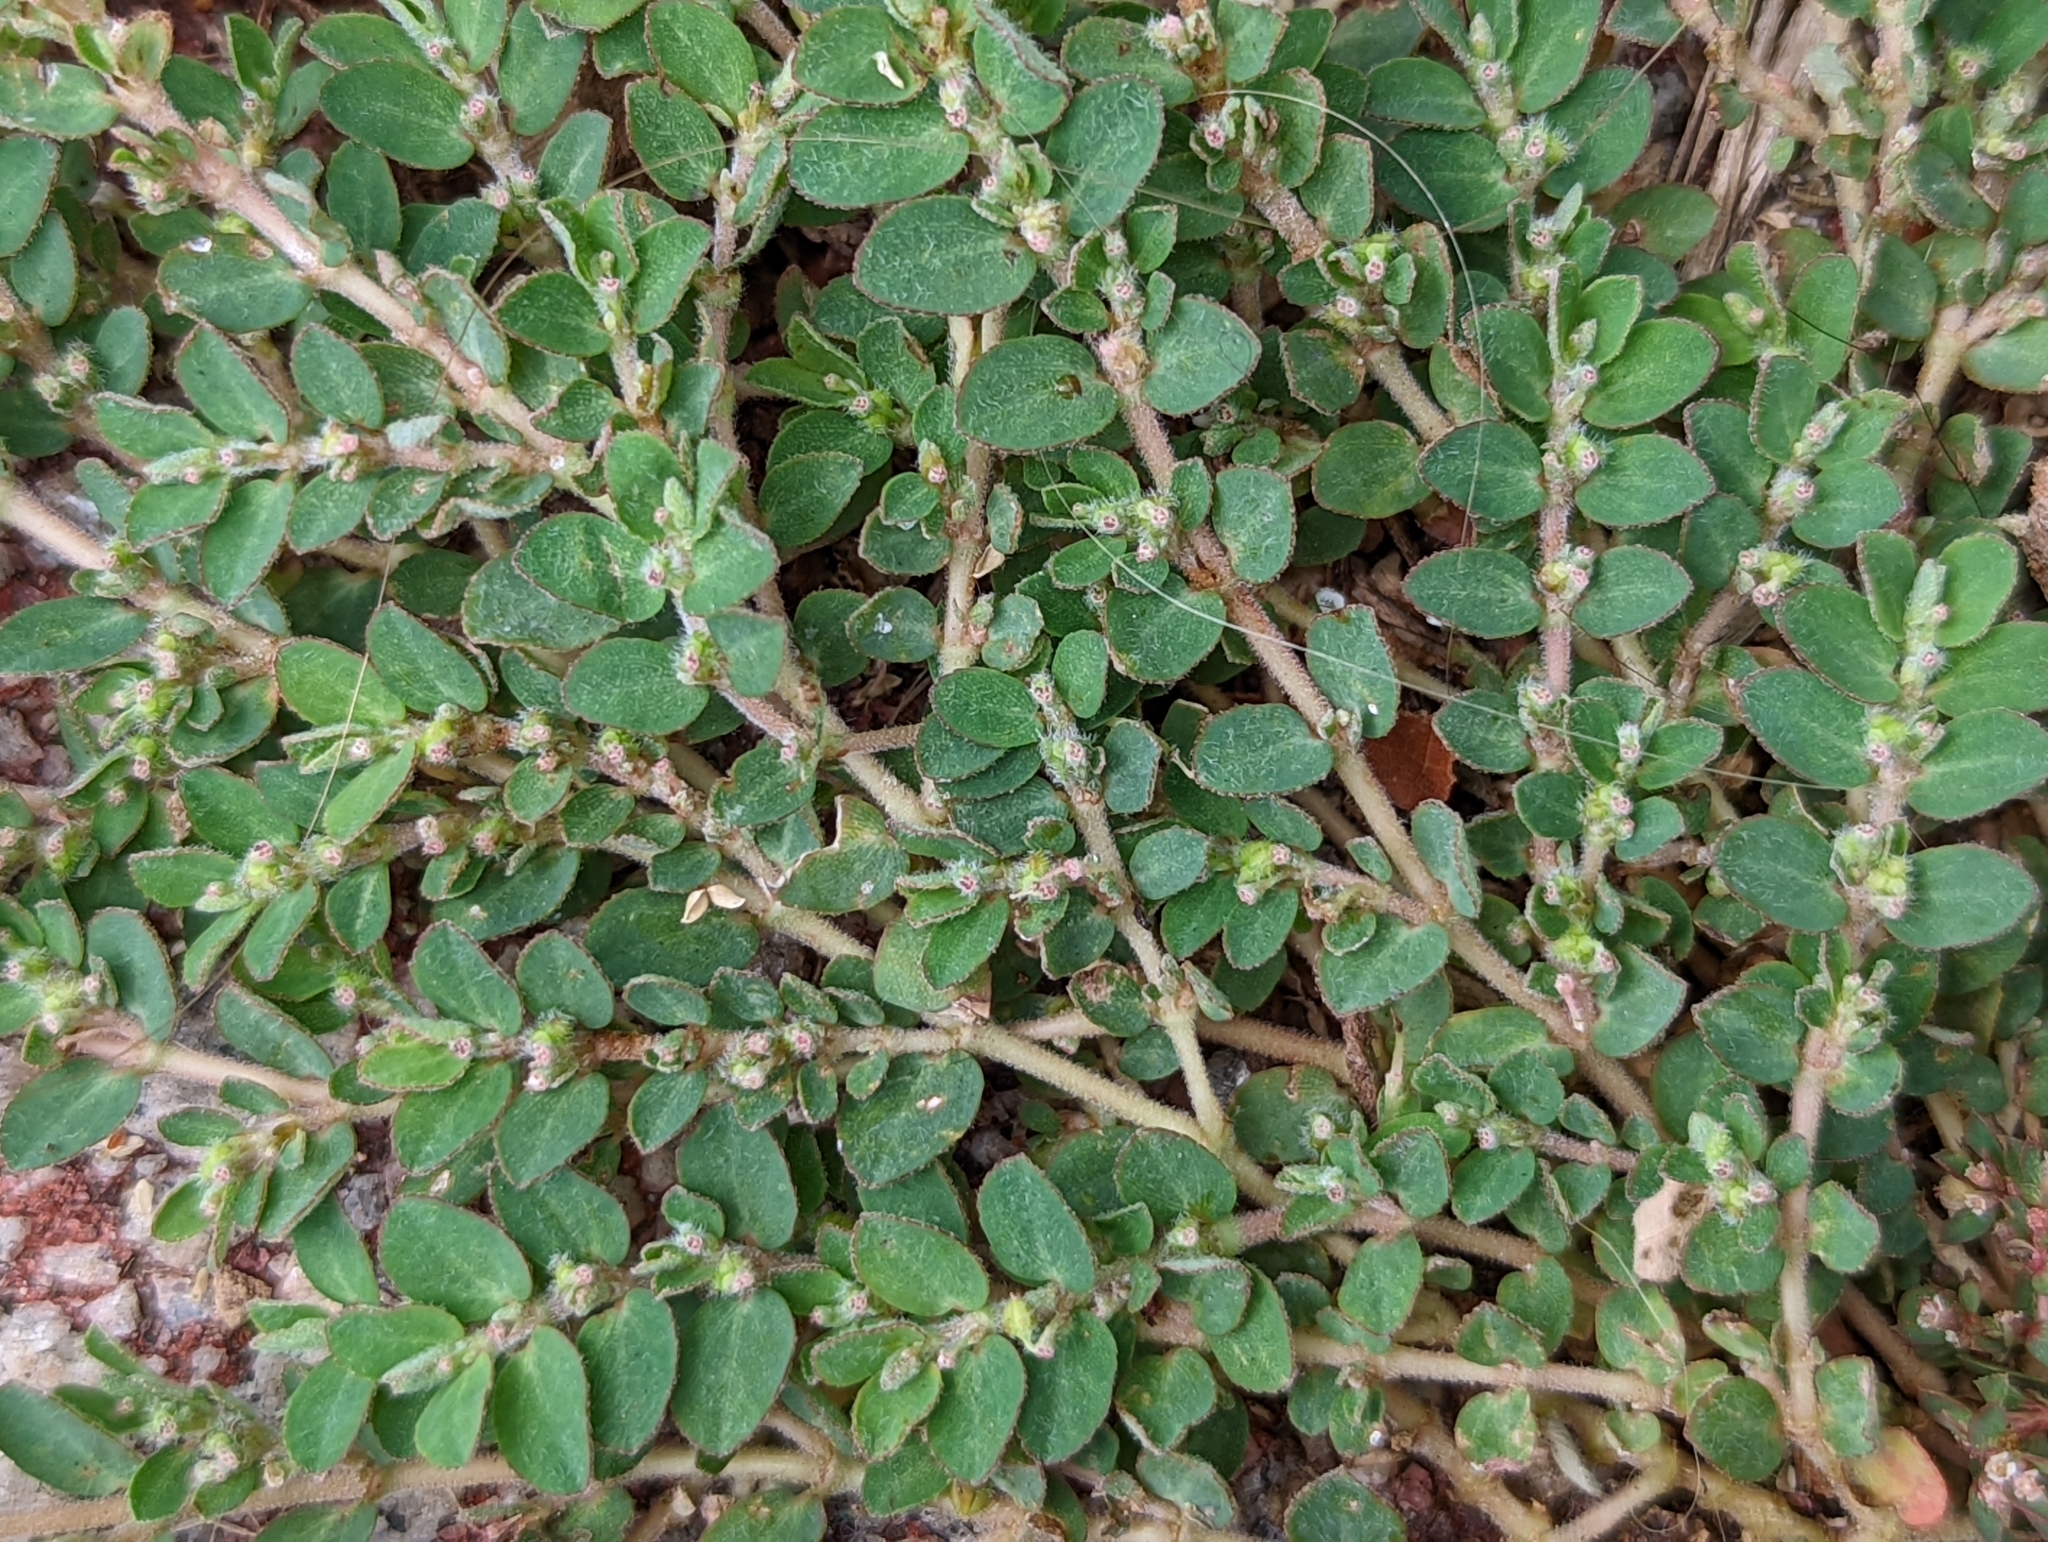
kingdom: Plantae
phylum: Tracheophyta
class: Magnoliopsida
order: Malpighiales
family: Euphorbiaceae
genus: Euphorbia
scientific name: Euphorbia prostrata
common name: Prostrate sandmat
